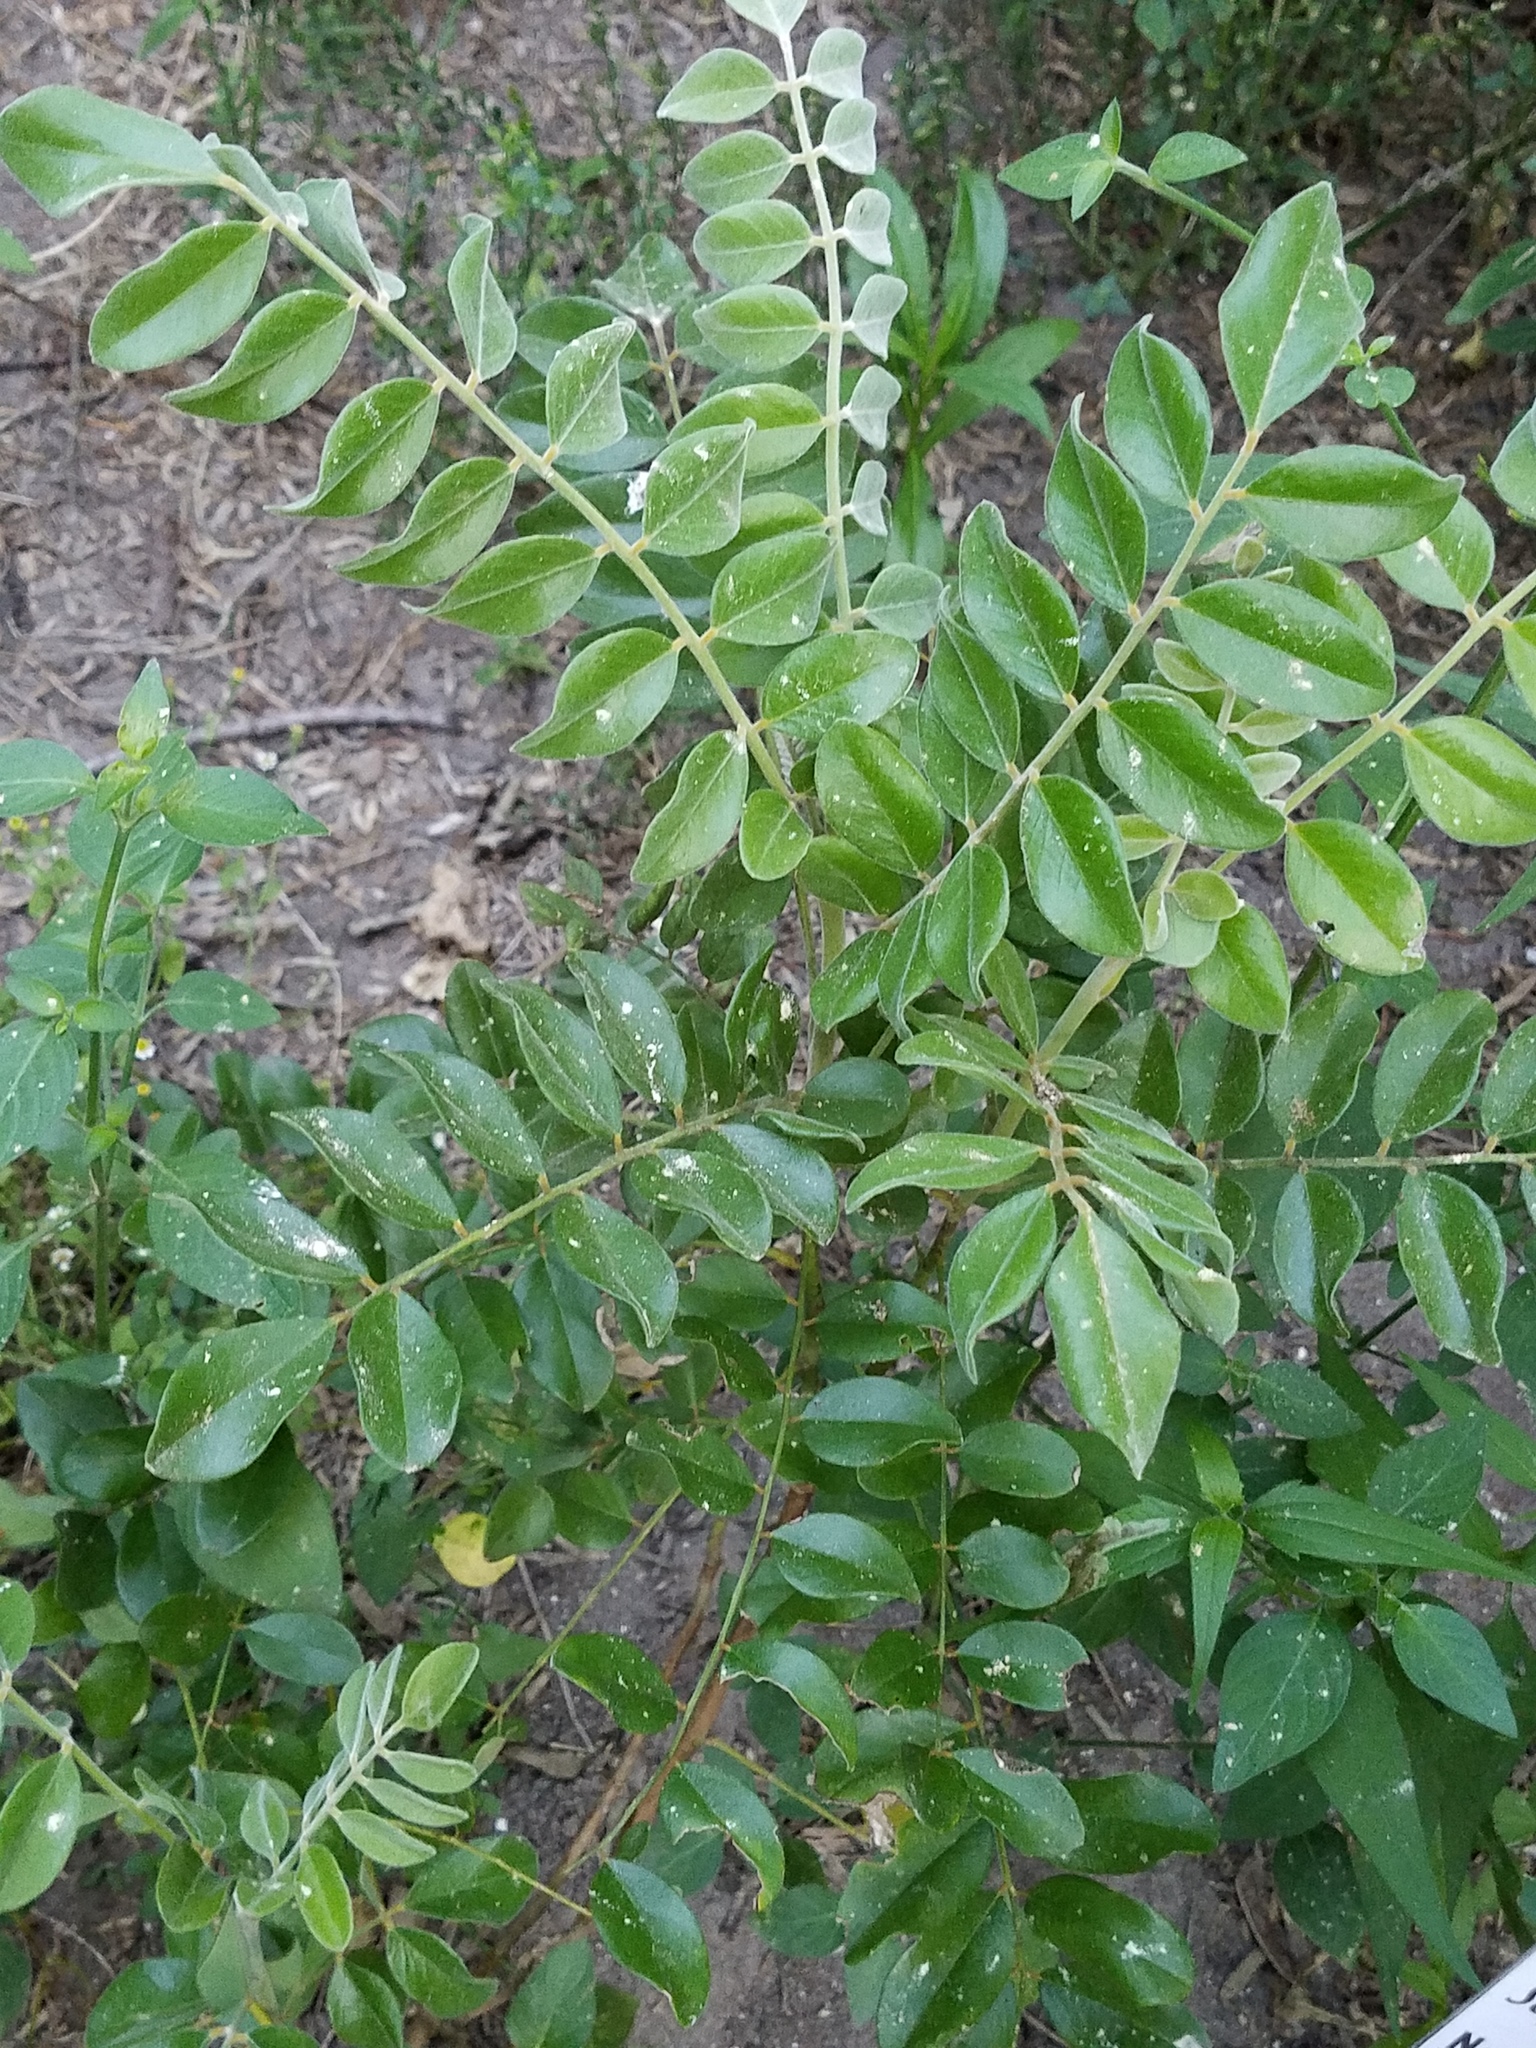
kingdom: Plantae
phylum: Tracheophyta
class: Magnoliopsida
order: Fabales
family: Fabaceae
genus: Sophora
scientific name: Sophora tomentosa
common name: Yellow necklacepod
